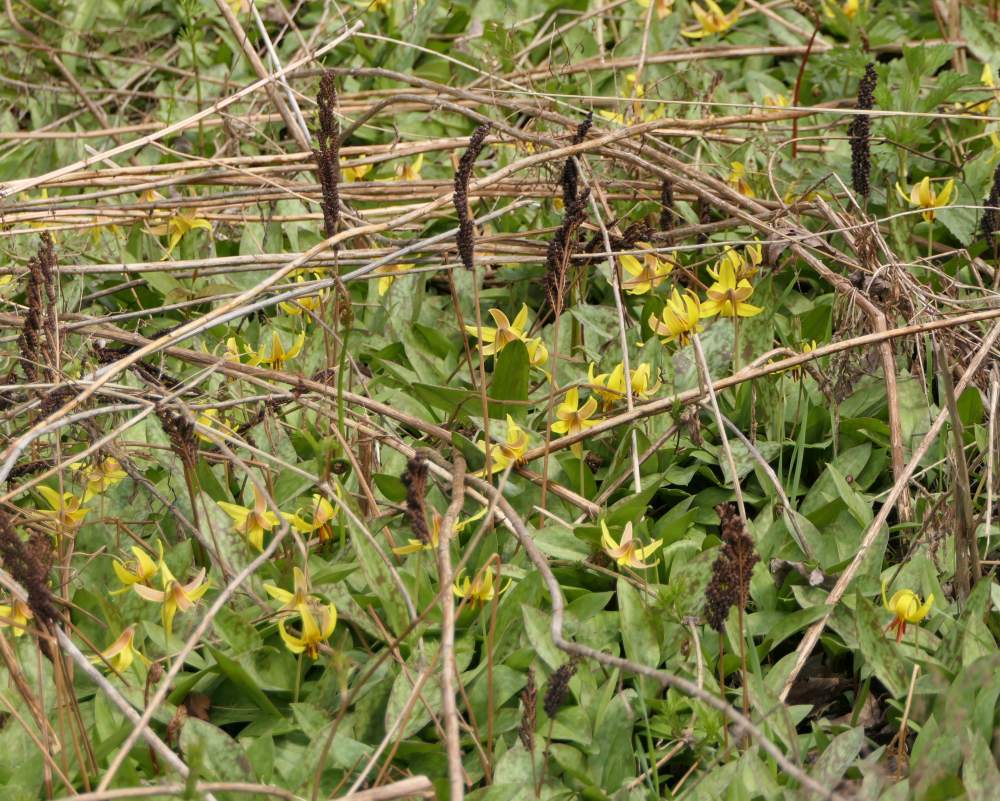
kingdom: Plantae
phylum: Tracheophyta
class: Liliopsida
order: Liliales
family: Liliaceae
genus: Erythronium
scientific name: Erythronium americanum
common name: Yellow adder's-tongue
